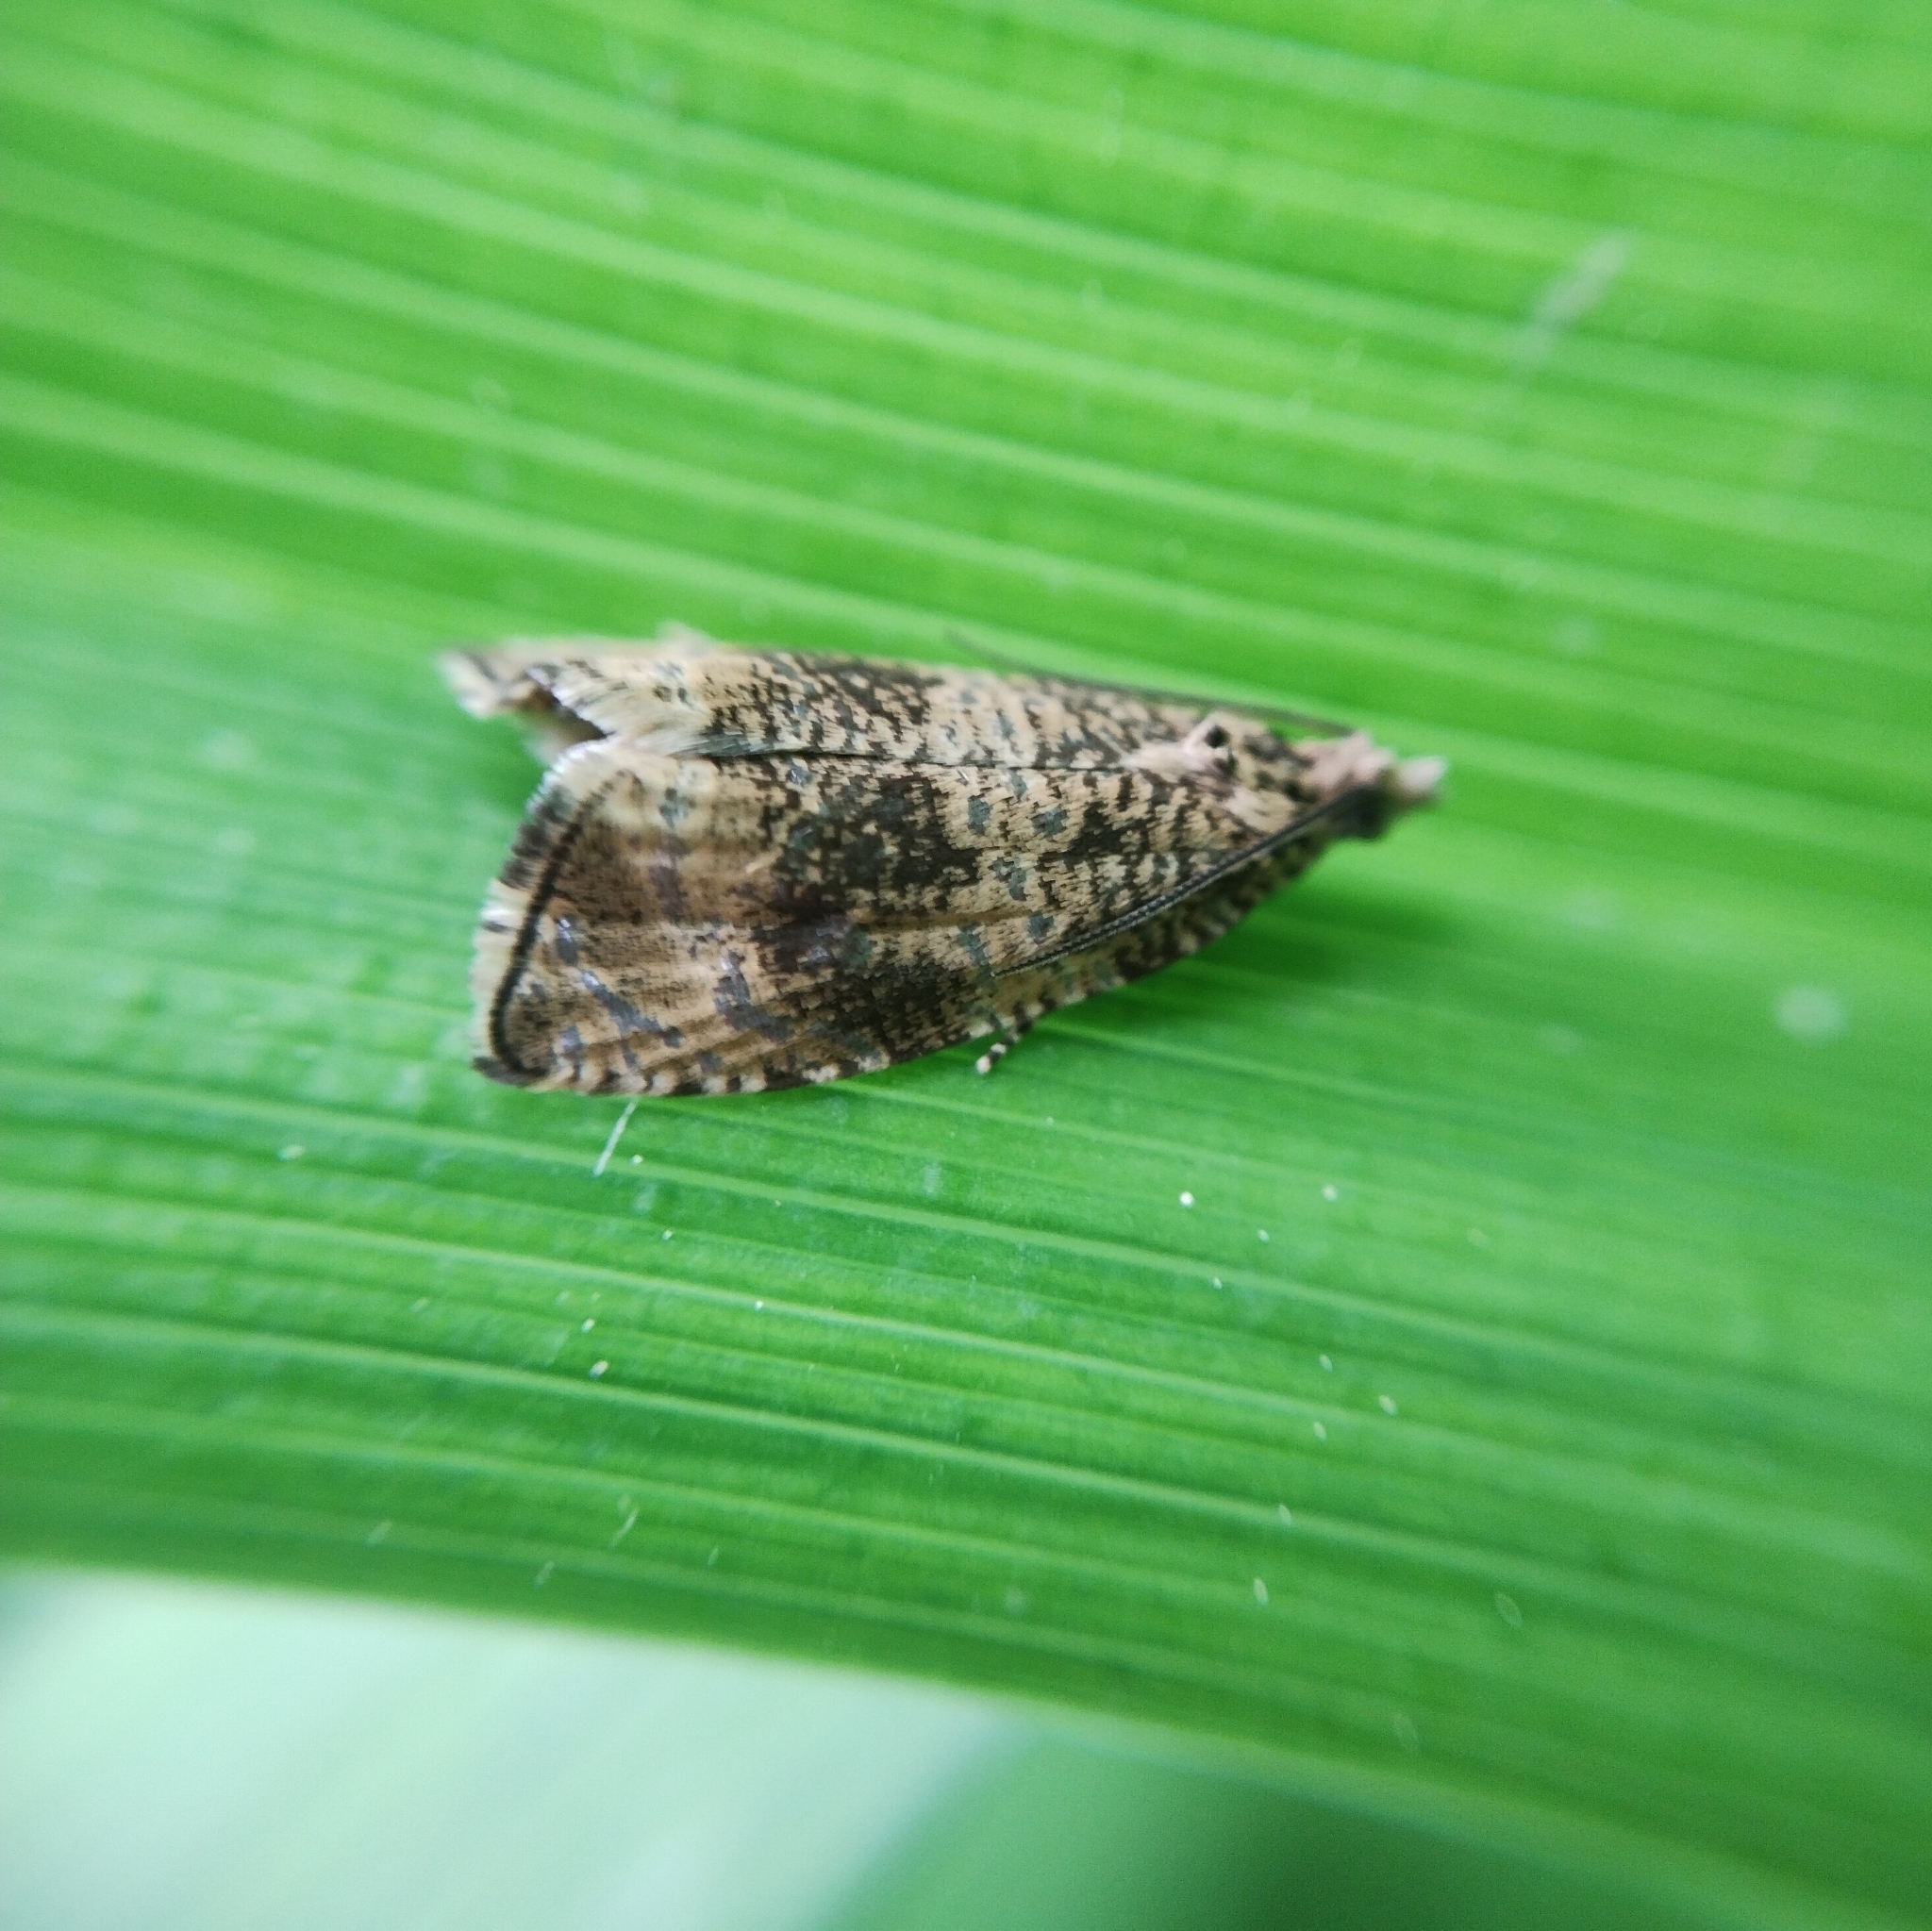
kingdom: Animalia
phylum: Arthropoda
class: Insecta
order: Lepidoptera
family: Tortricidae
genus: Syricoris
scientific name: Syricoris lacunana
